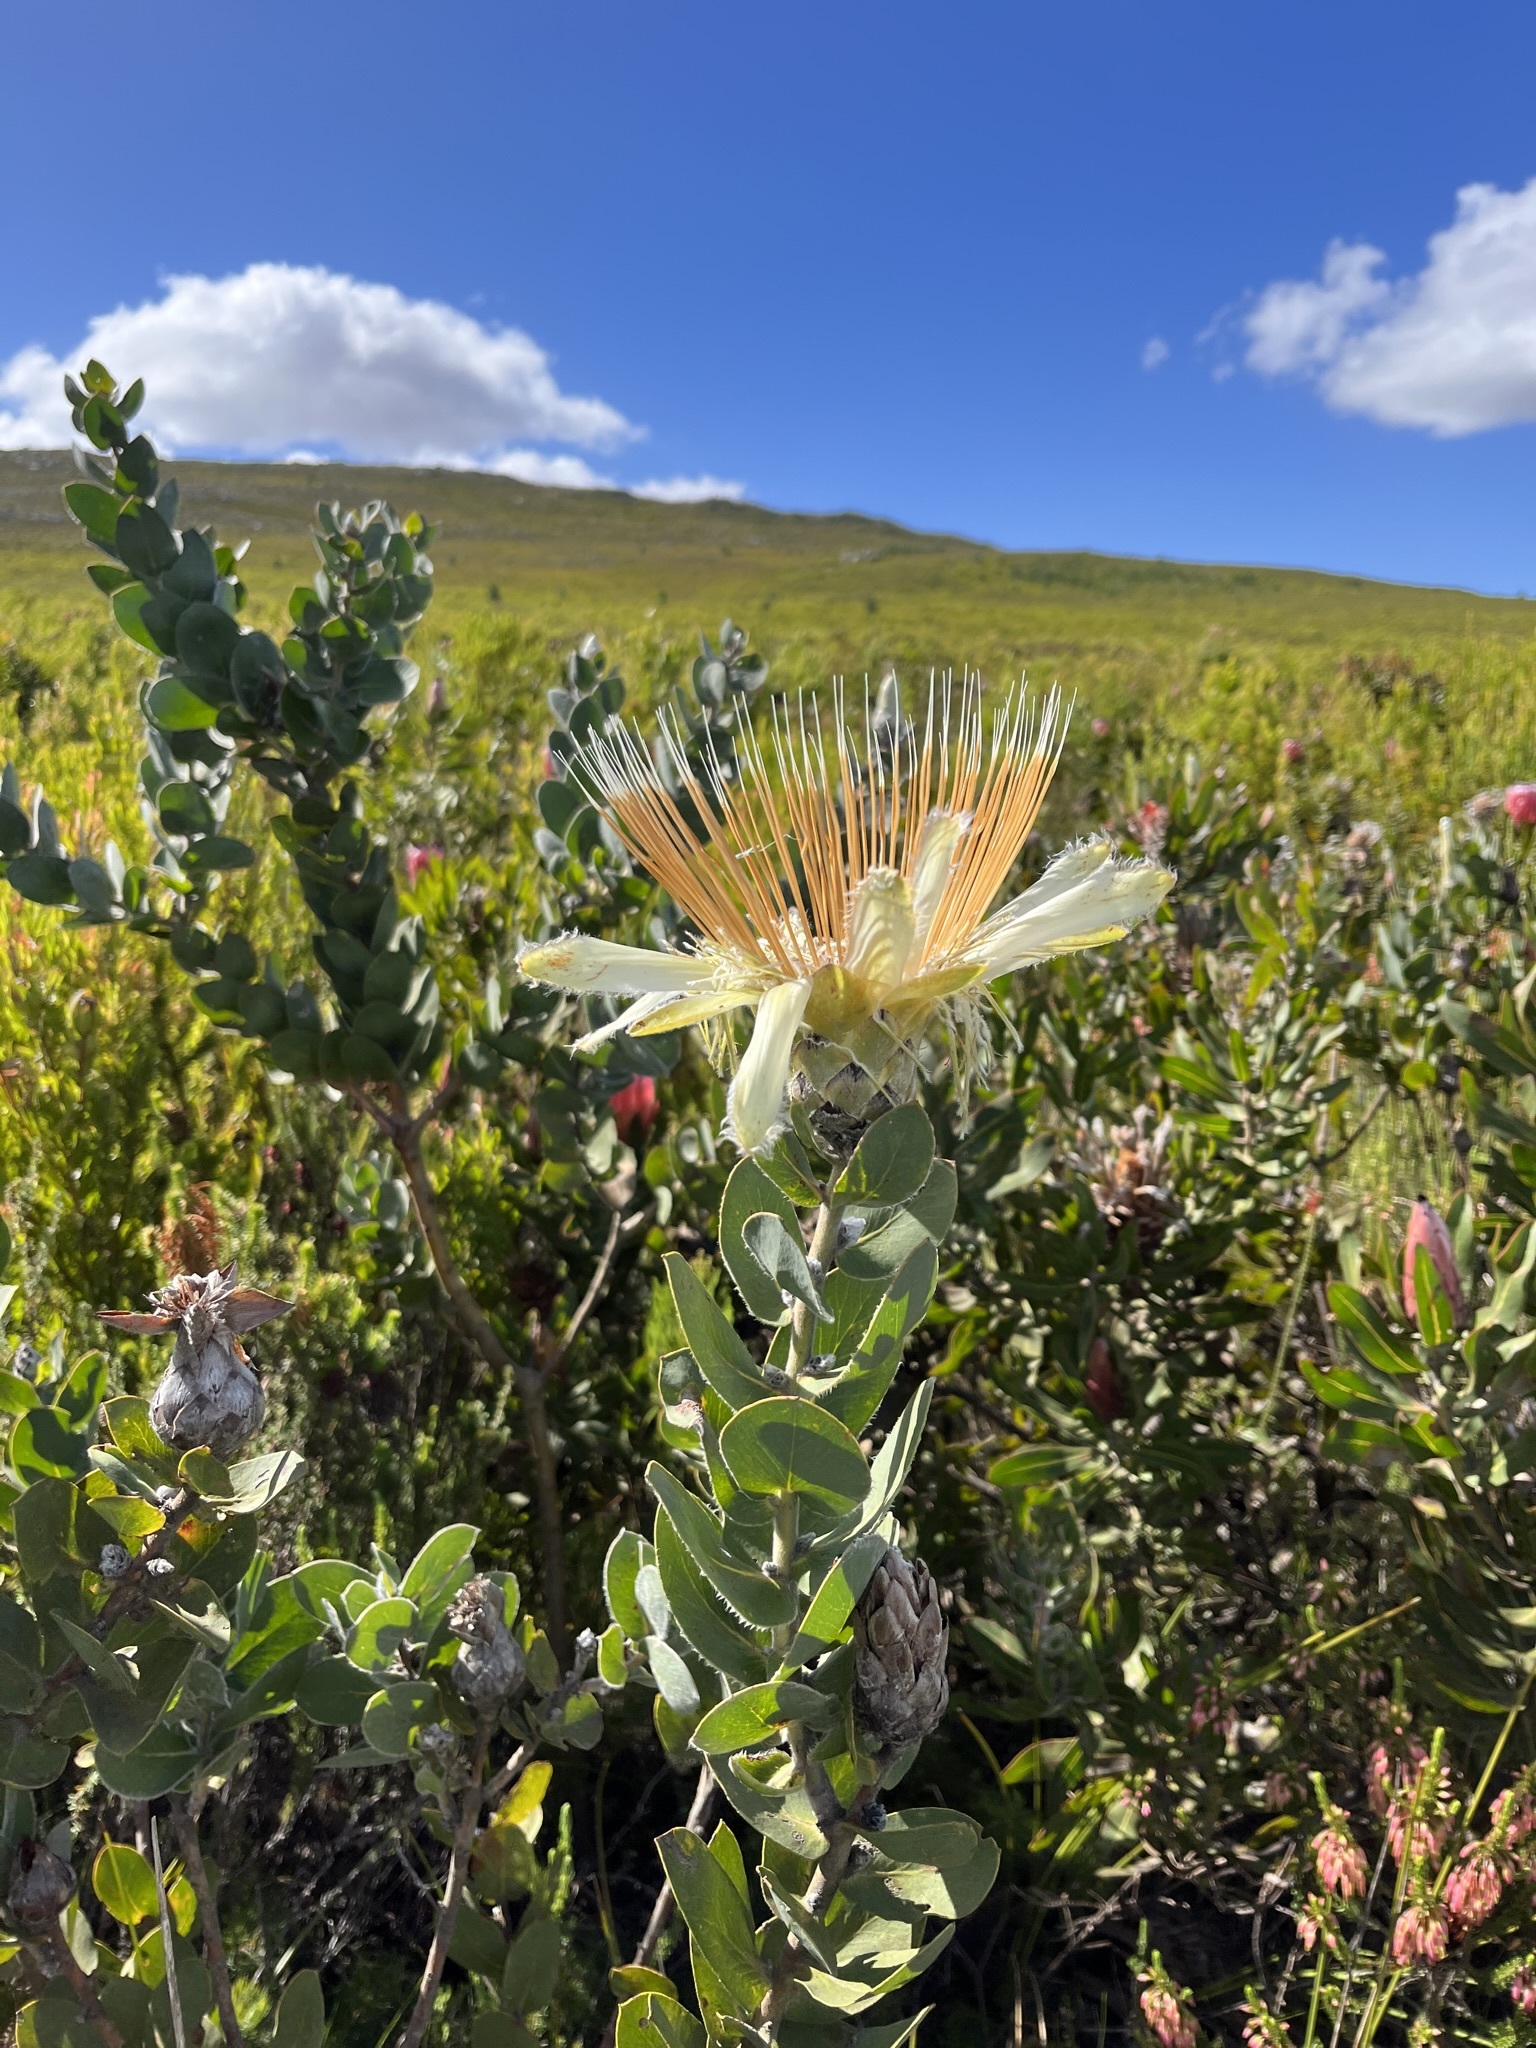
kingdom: Plantae
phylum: Tracheophyta
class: Magnoliopsida
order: Proteales
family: Proteaceae
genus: Protea
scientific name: Protea aurea
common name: Shuttlecock sugarbush
